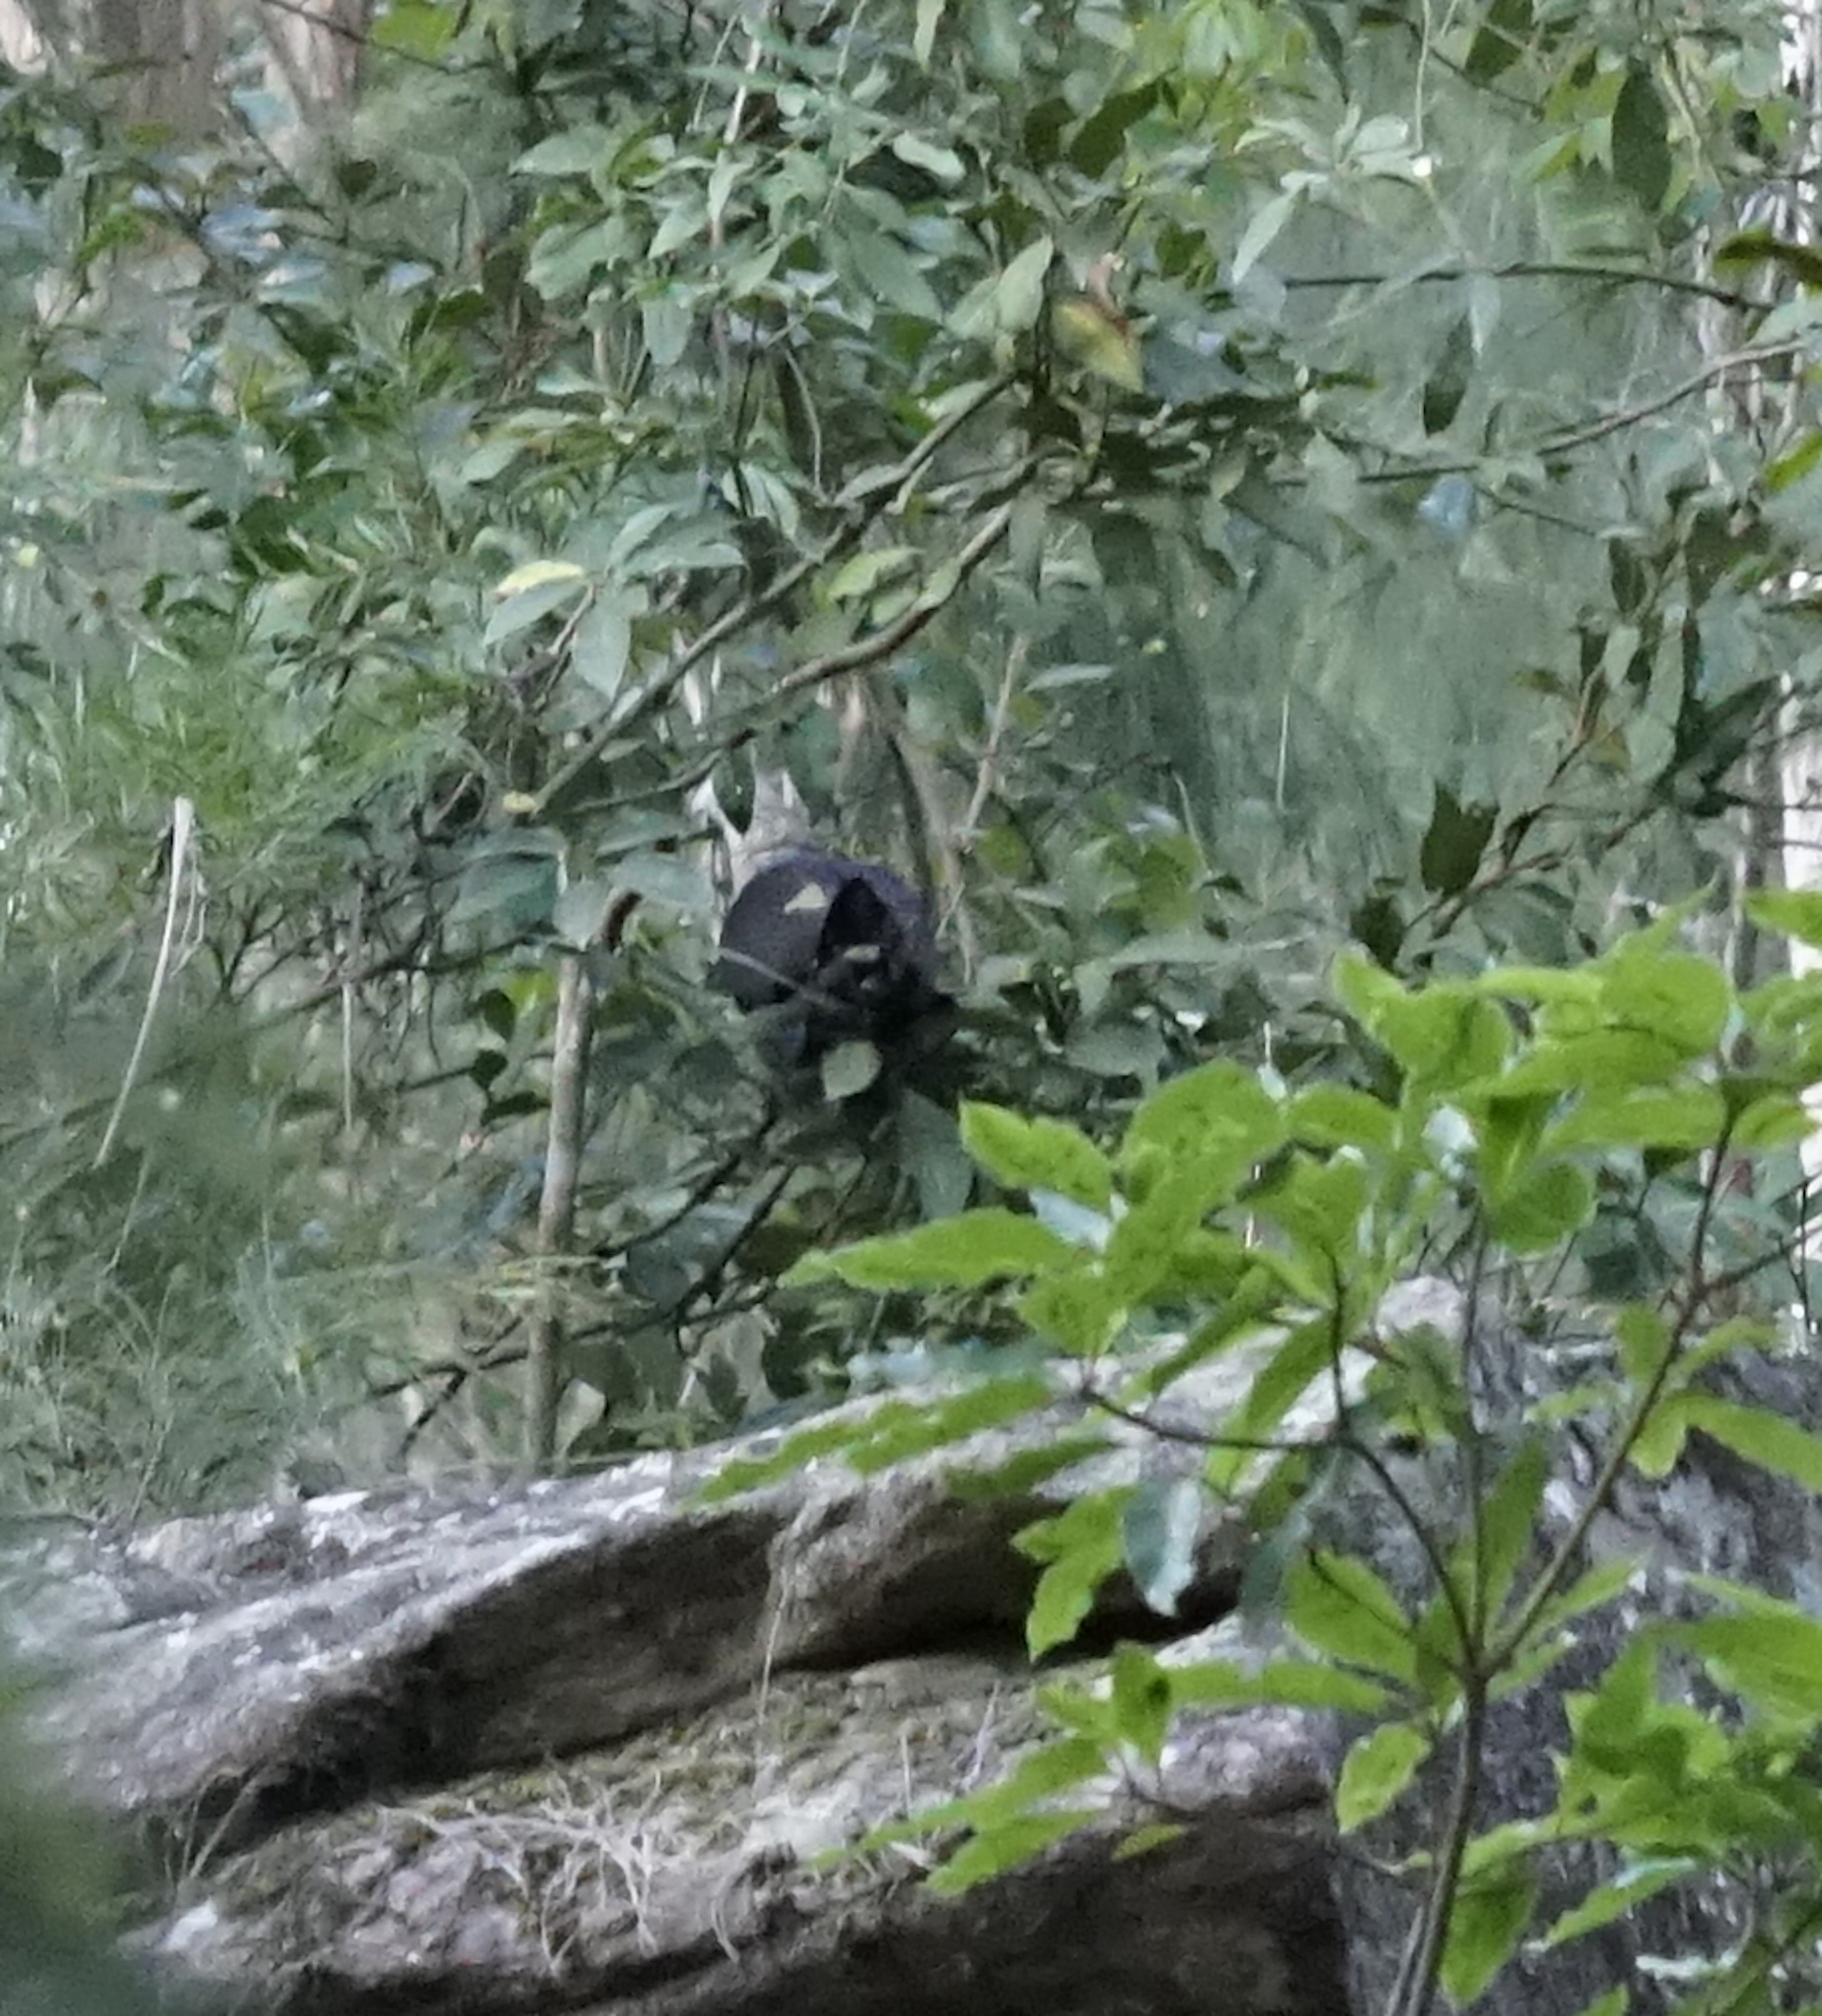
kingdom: Animalia
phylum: Chordata
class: Aves
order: Columbiformes
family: Columbidae
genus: Columba
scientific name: Columba leucomela
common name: White-headed pigeon
